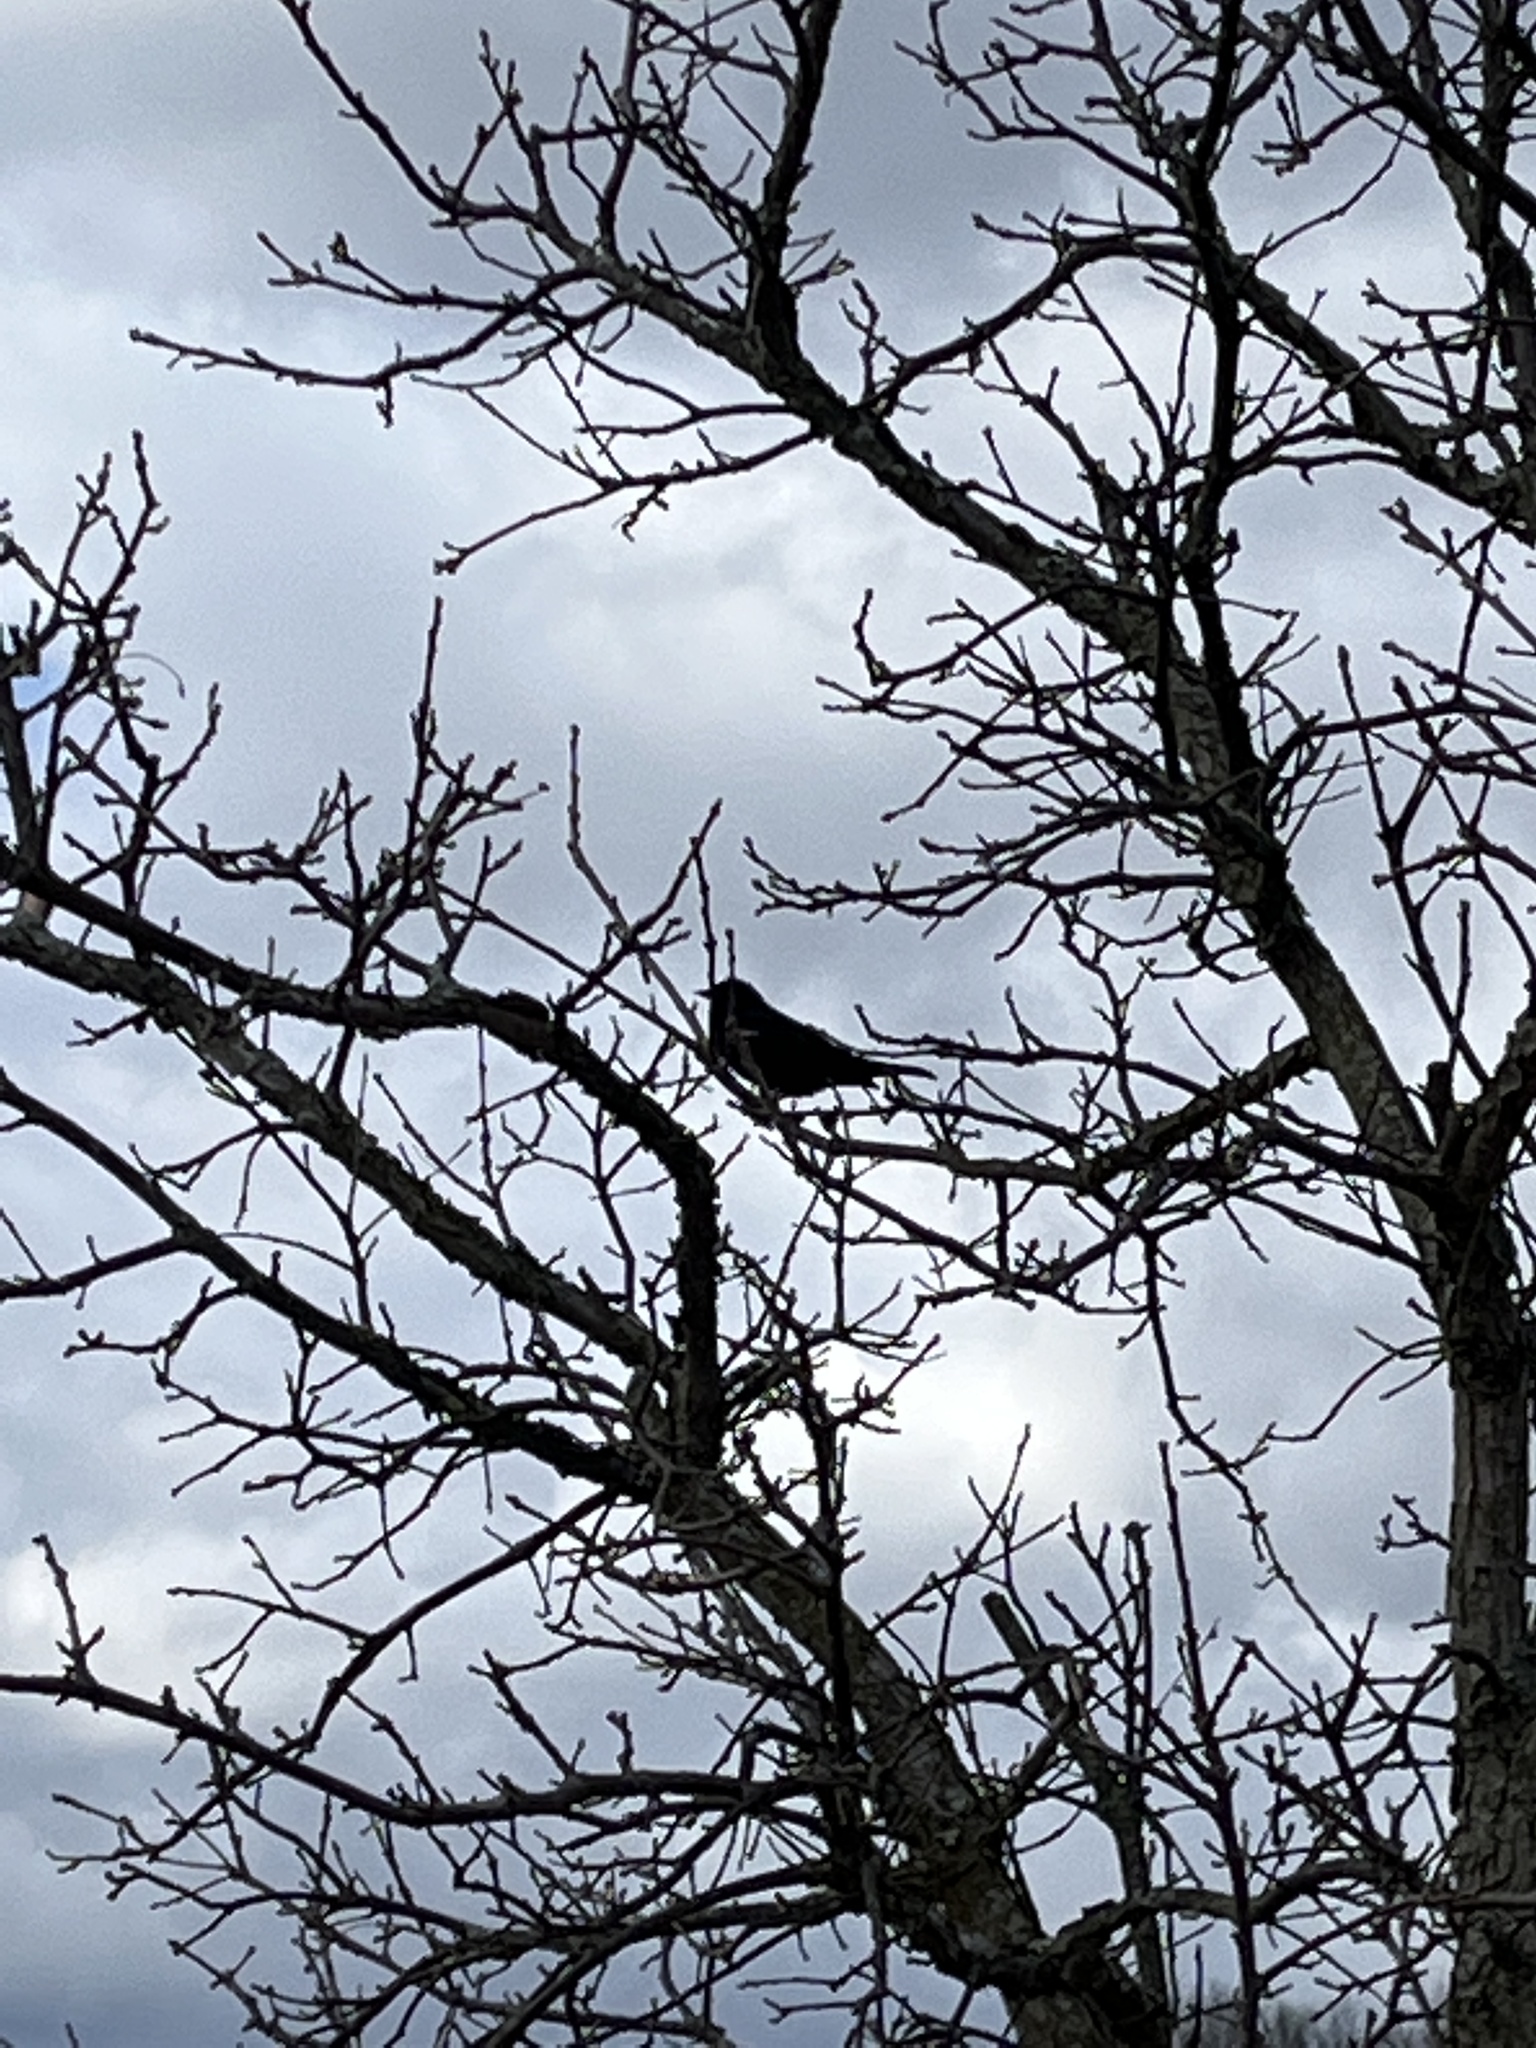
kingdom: Animalia
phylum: Chordata
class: Aves
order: Passeriformes
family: Icteridae
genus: Agelaius
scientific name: Agelaius phoeniceus
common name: Red-winged blackbird
